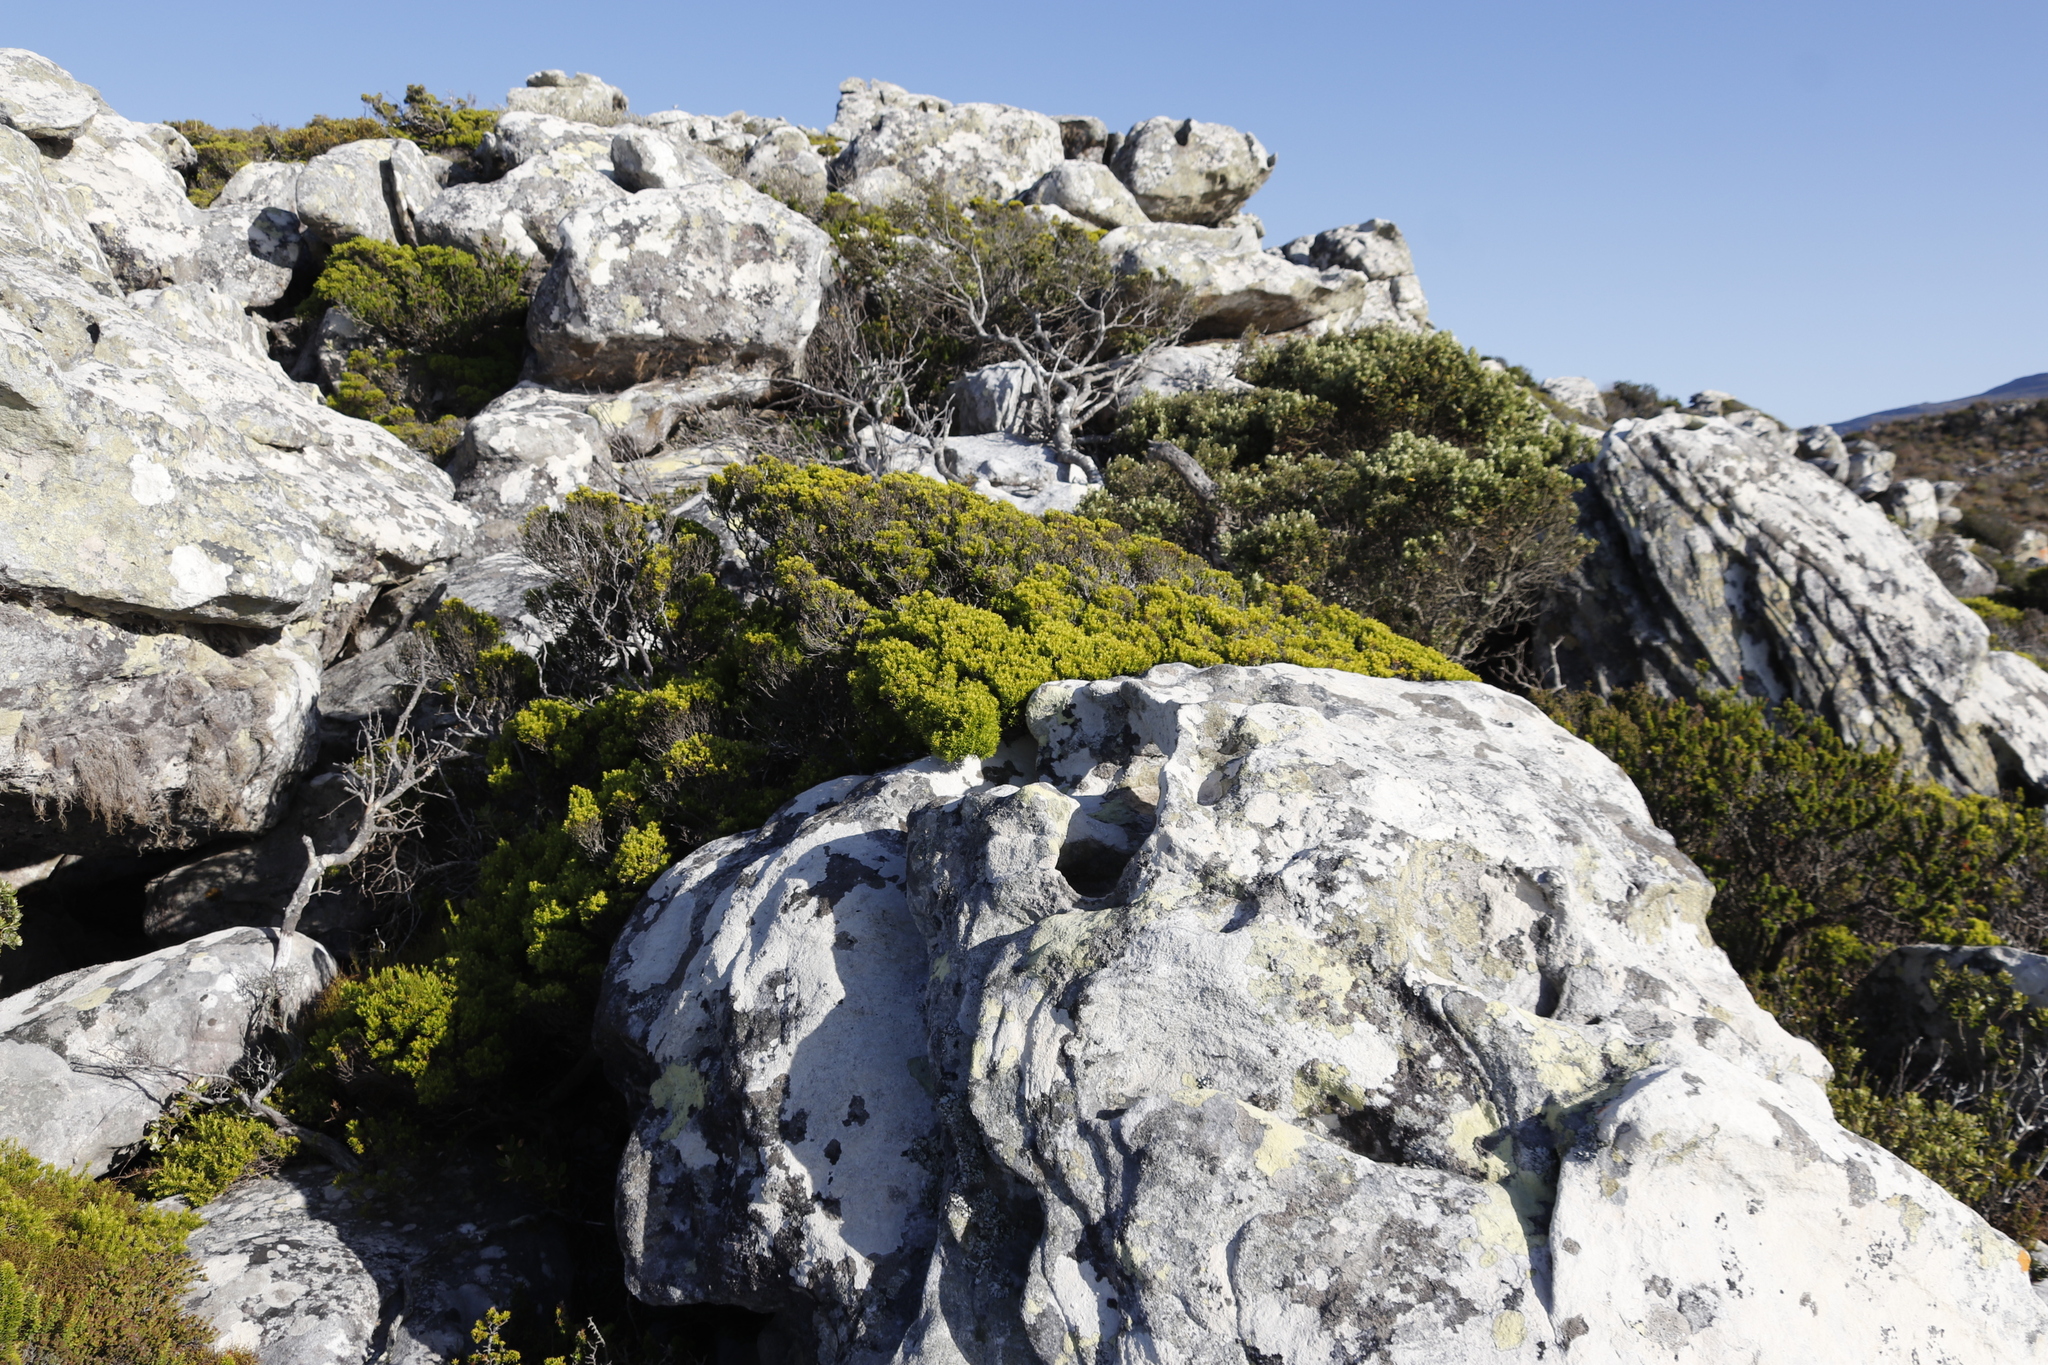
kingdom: Plantae
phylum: Tracheophyta
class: Magnoliopsida
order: Sapindales
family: Rutaceae
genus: Coleonema
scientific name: Coleonema album
